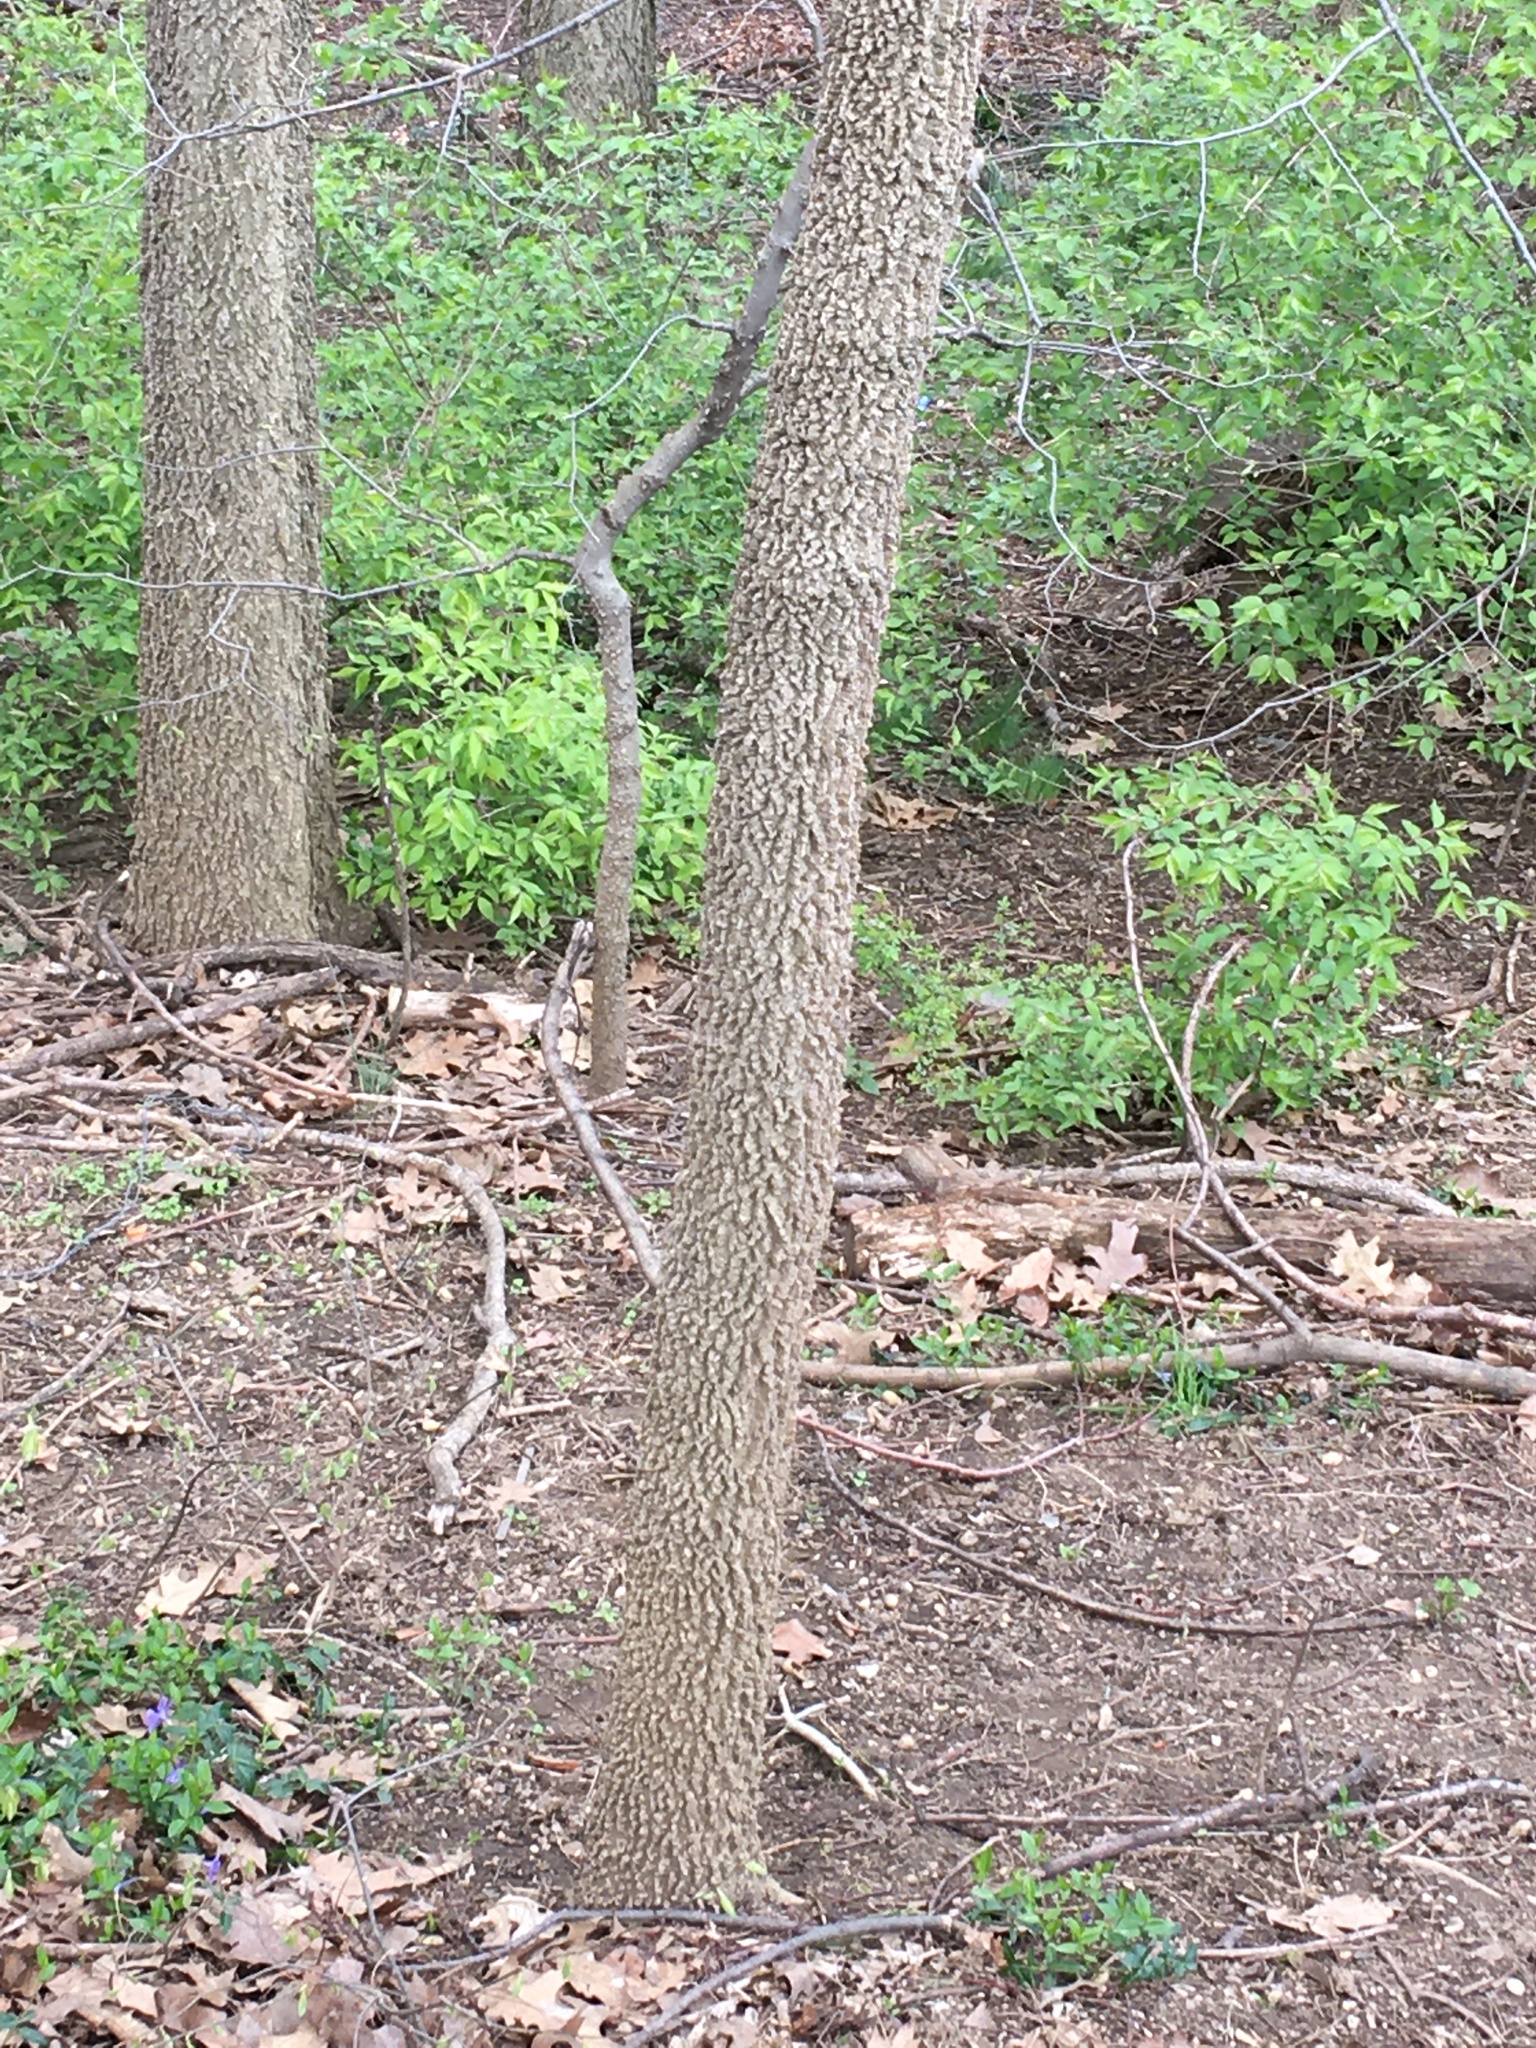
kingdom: Plantae
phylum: Tracheophyta
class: Magnoliopsida
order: Rosales
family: Cannabaceae
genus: Celtis
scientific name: Celtis occidentalis
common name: Common hackberry
